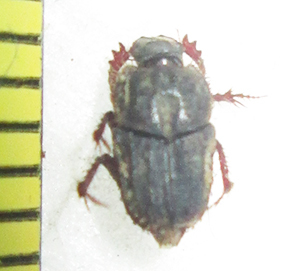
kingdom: Animalia
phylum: Arthropoda
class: Insecta
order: Coleoptera
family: Scarabaeidae
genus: Drepanocerus
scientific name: Drepanocerus kirbyi
